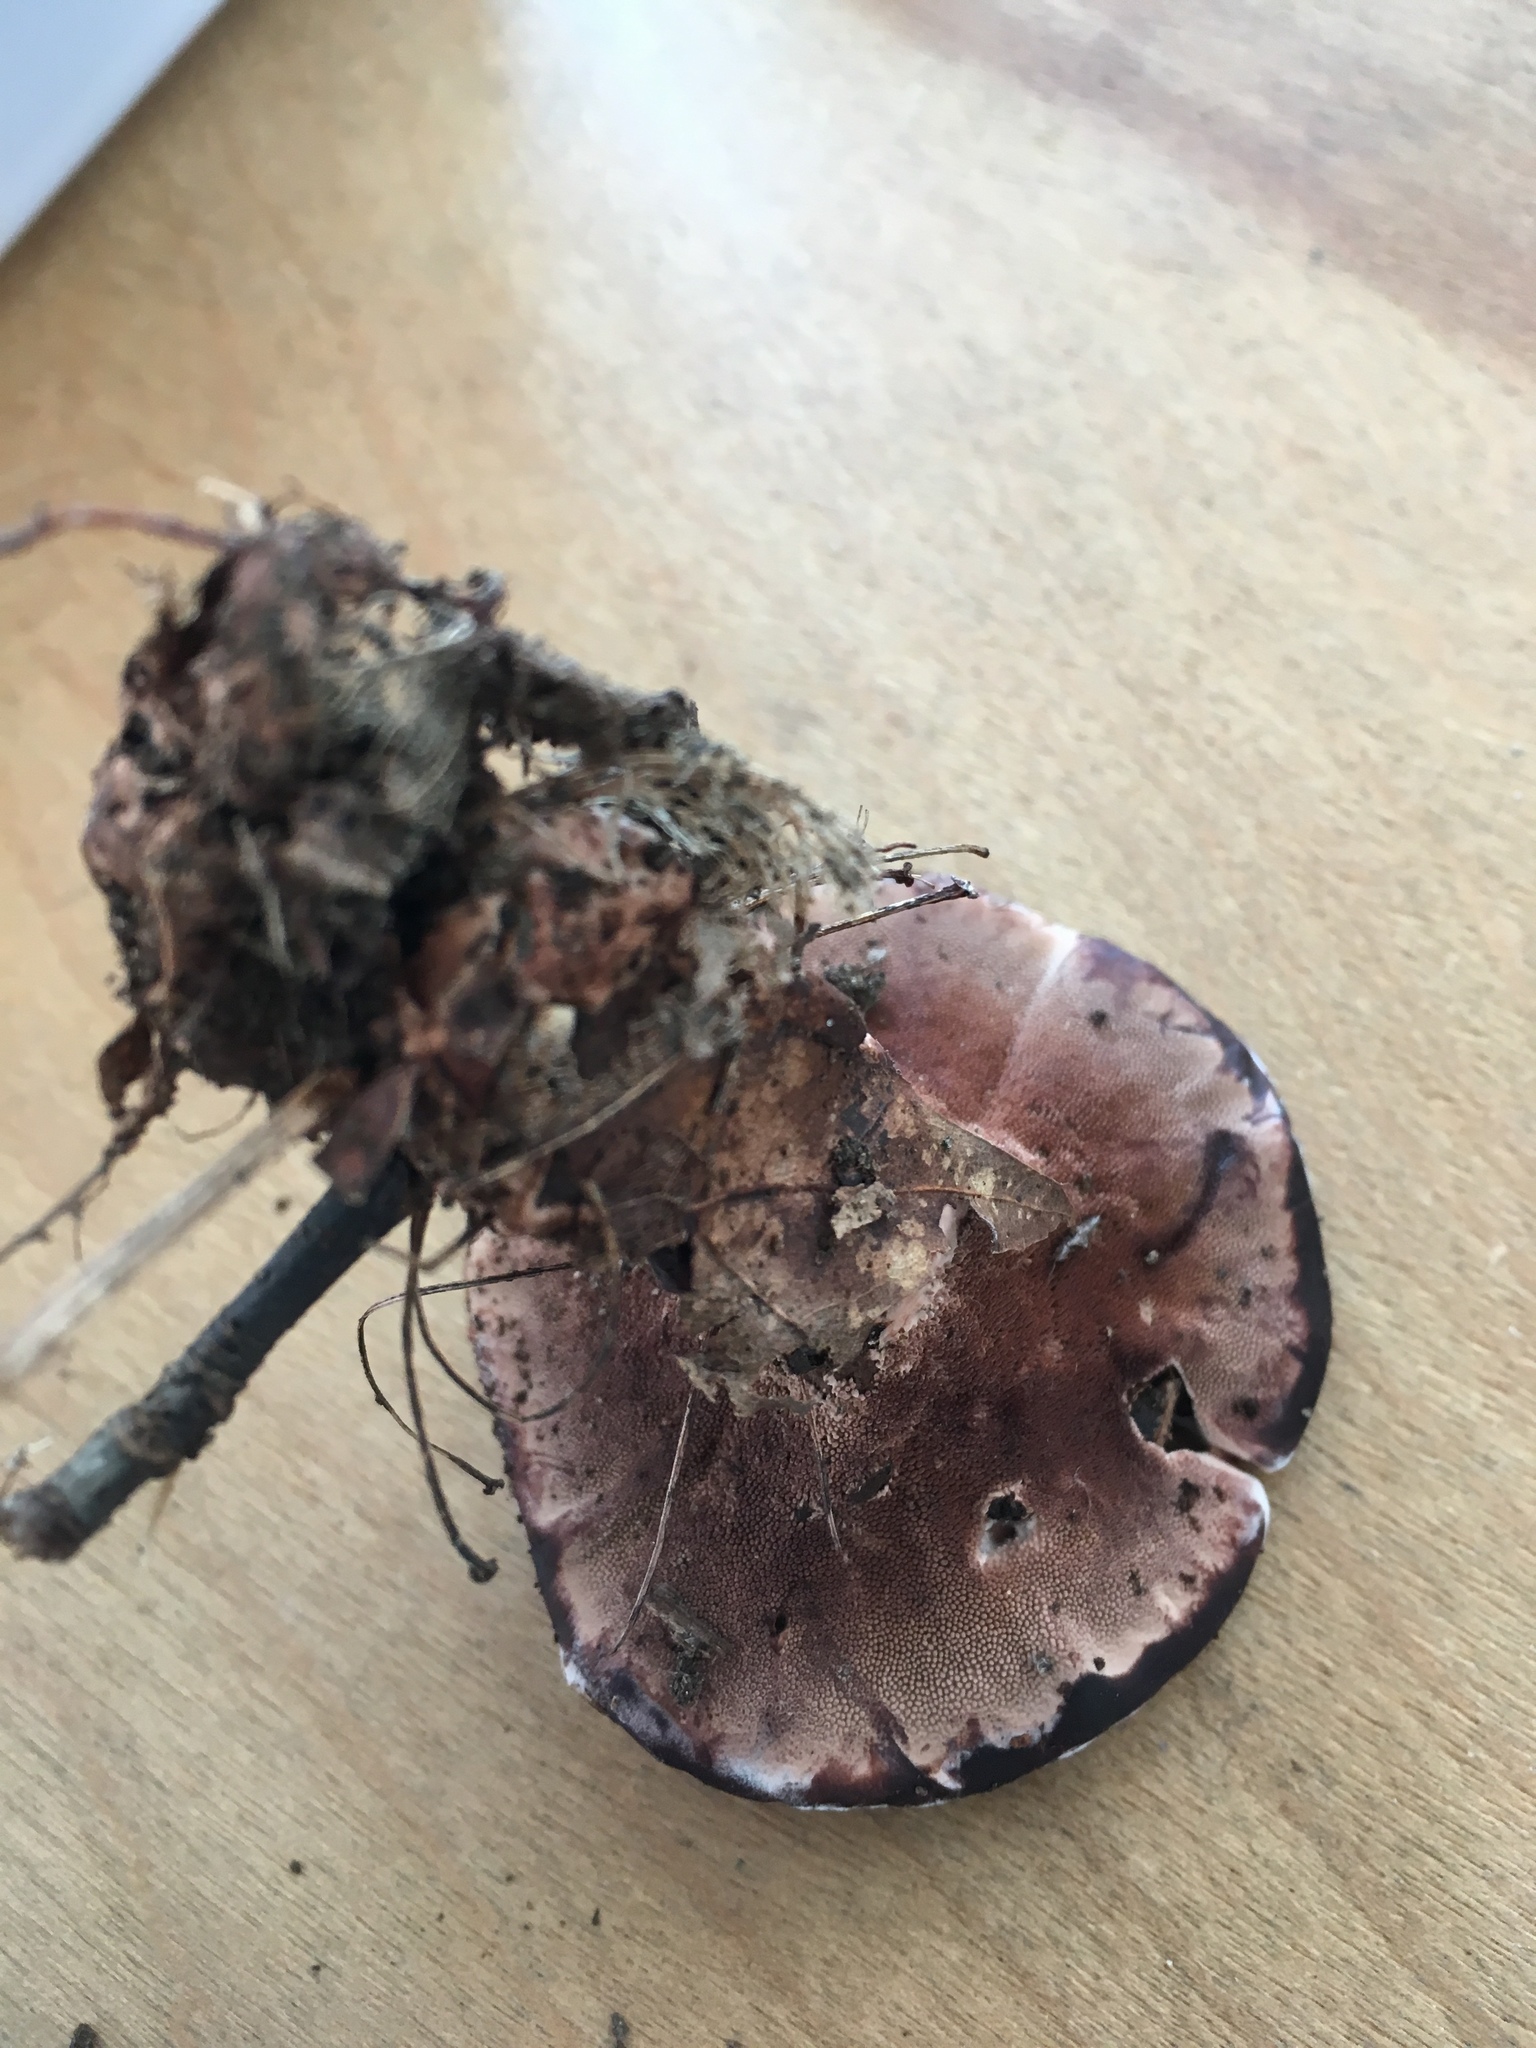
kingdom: Fungi
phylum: Basidiomycota
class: Agaricomycetes
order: Thelephorales
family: Bankeraceae
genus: Hydnellum
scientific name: Hydnellum scrobiculatum
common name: Ridged tooth
